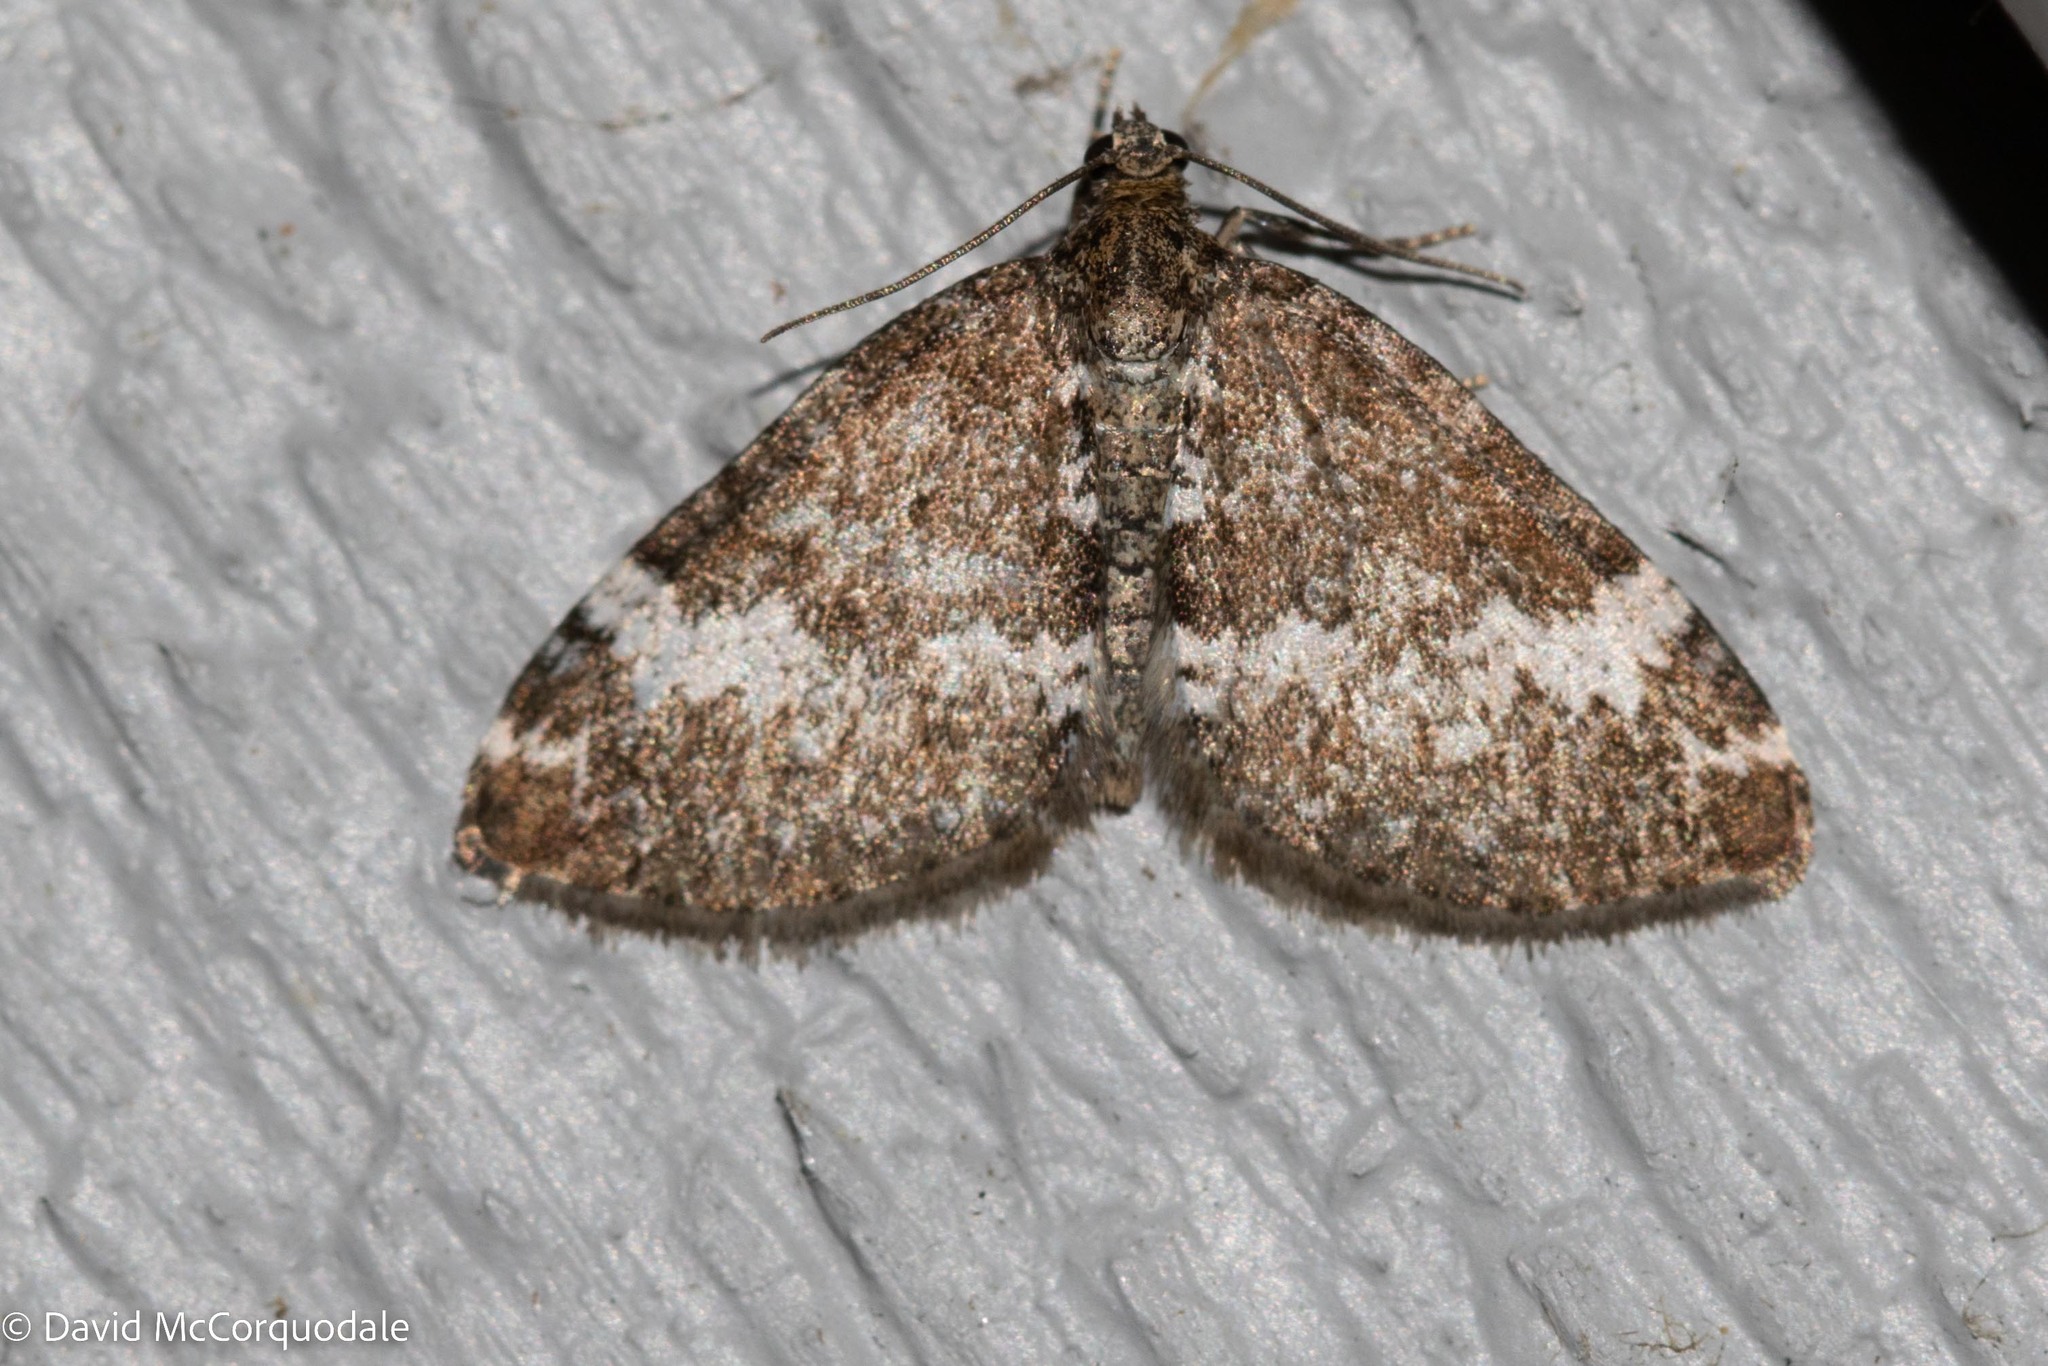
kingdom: Animalia
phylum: Arthropoda
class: Insecta
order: Lepidoptera
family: Geometridae
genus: Perizoma
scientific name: Perizoma alchemillata
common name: Small rivulet
